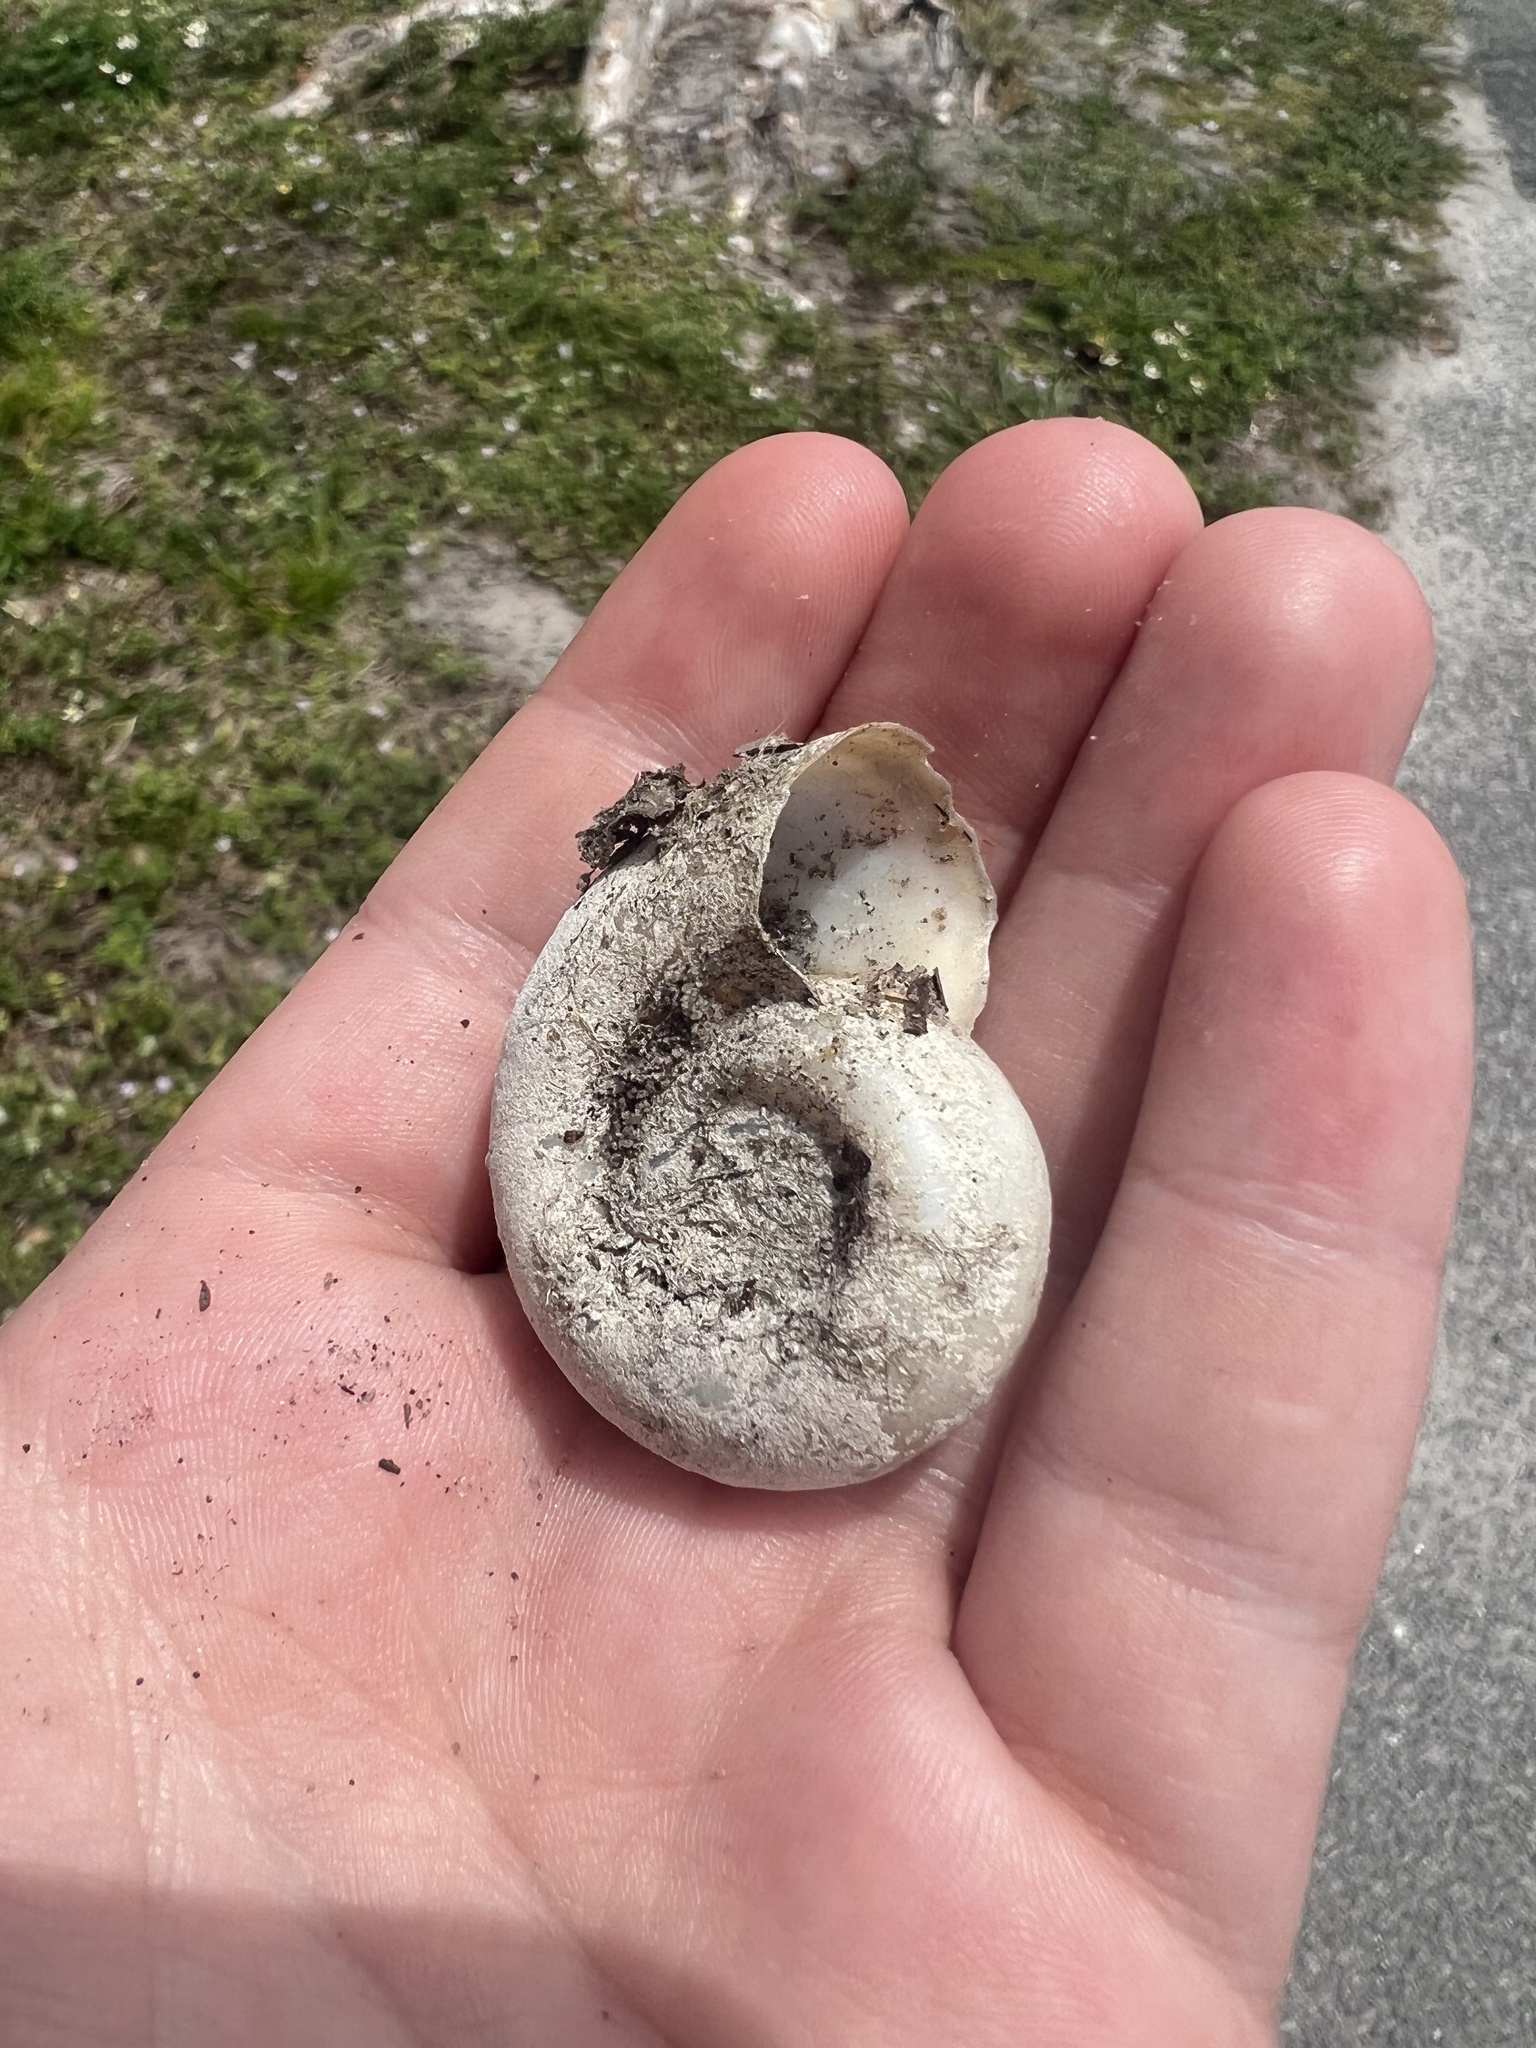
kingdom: Animalia
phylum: Mollusca
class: Gastropoda
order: Architaenioglossa
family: Ampullariidae
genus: Marisa
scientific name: Marisa cornuarietis
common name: Giant ramshorn snail
